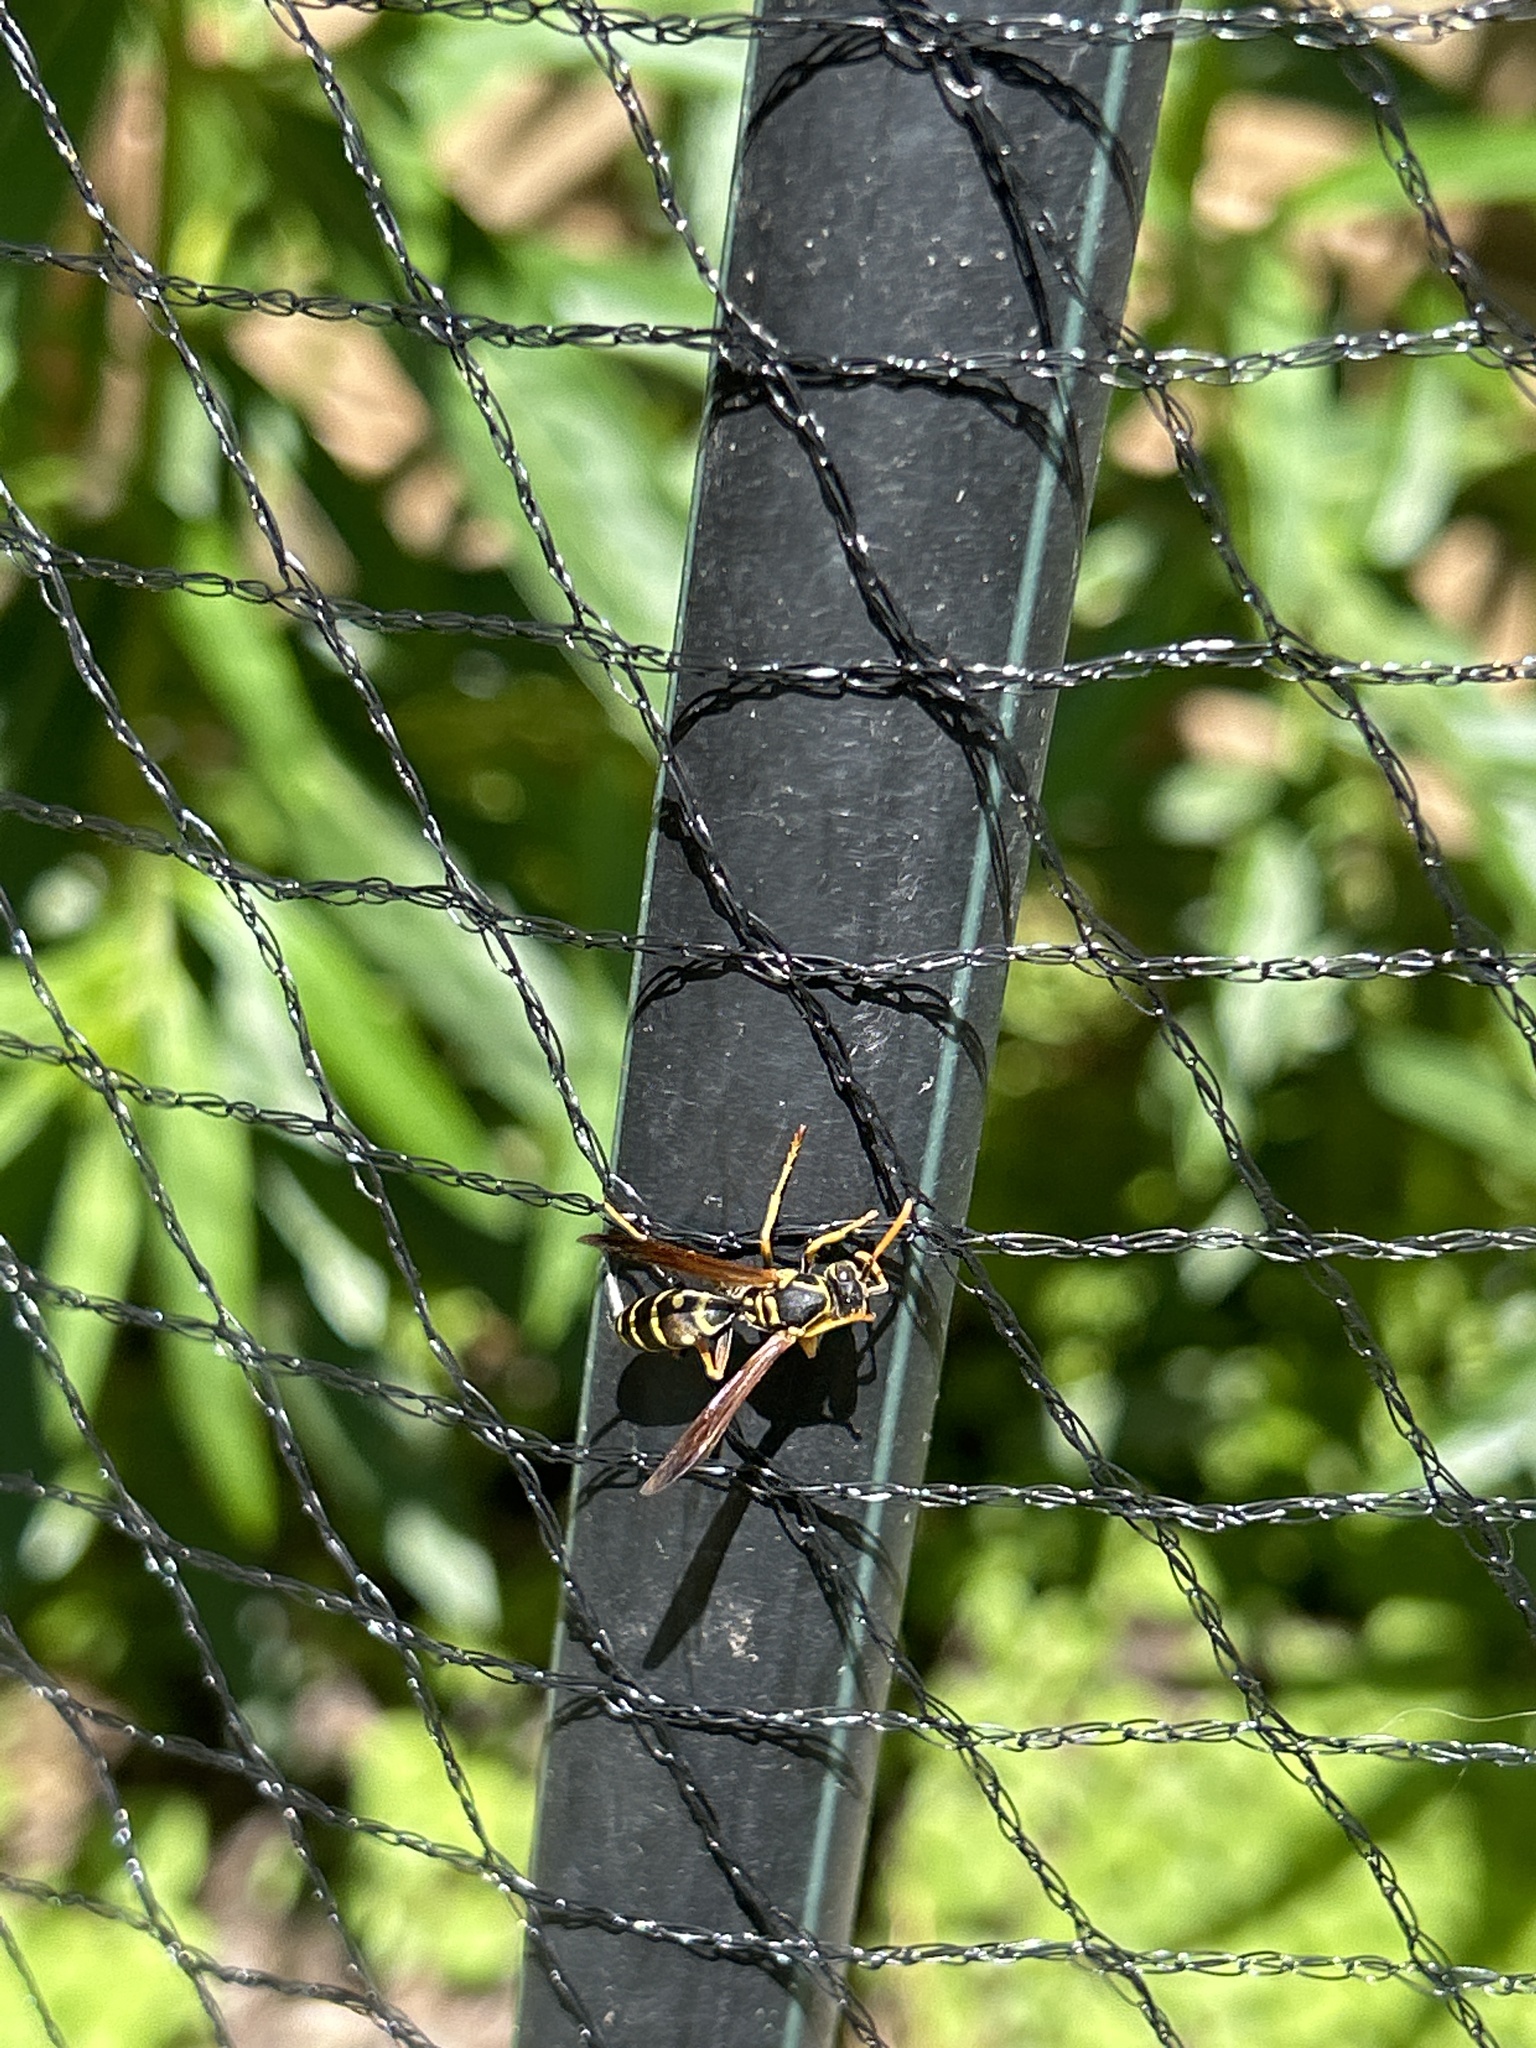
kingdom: Animalia
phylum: Arthropoda
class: Insecta
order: Hymenoptera
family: Eumenidae
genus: Polistes
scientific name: Polistes chinensis
